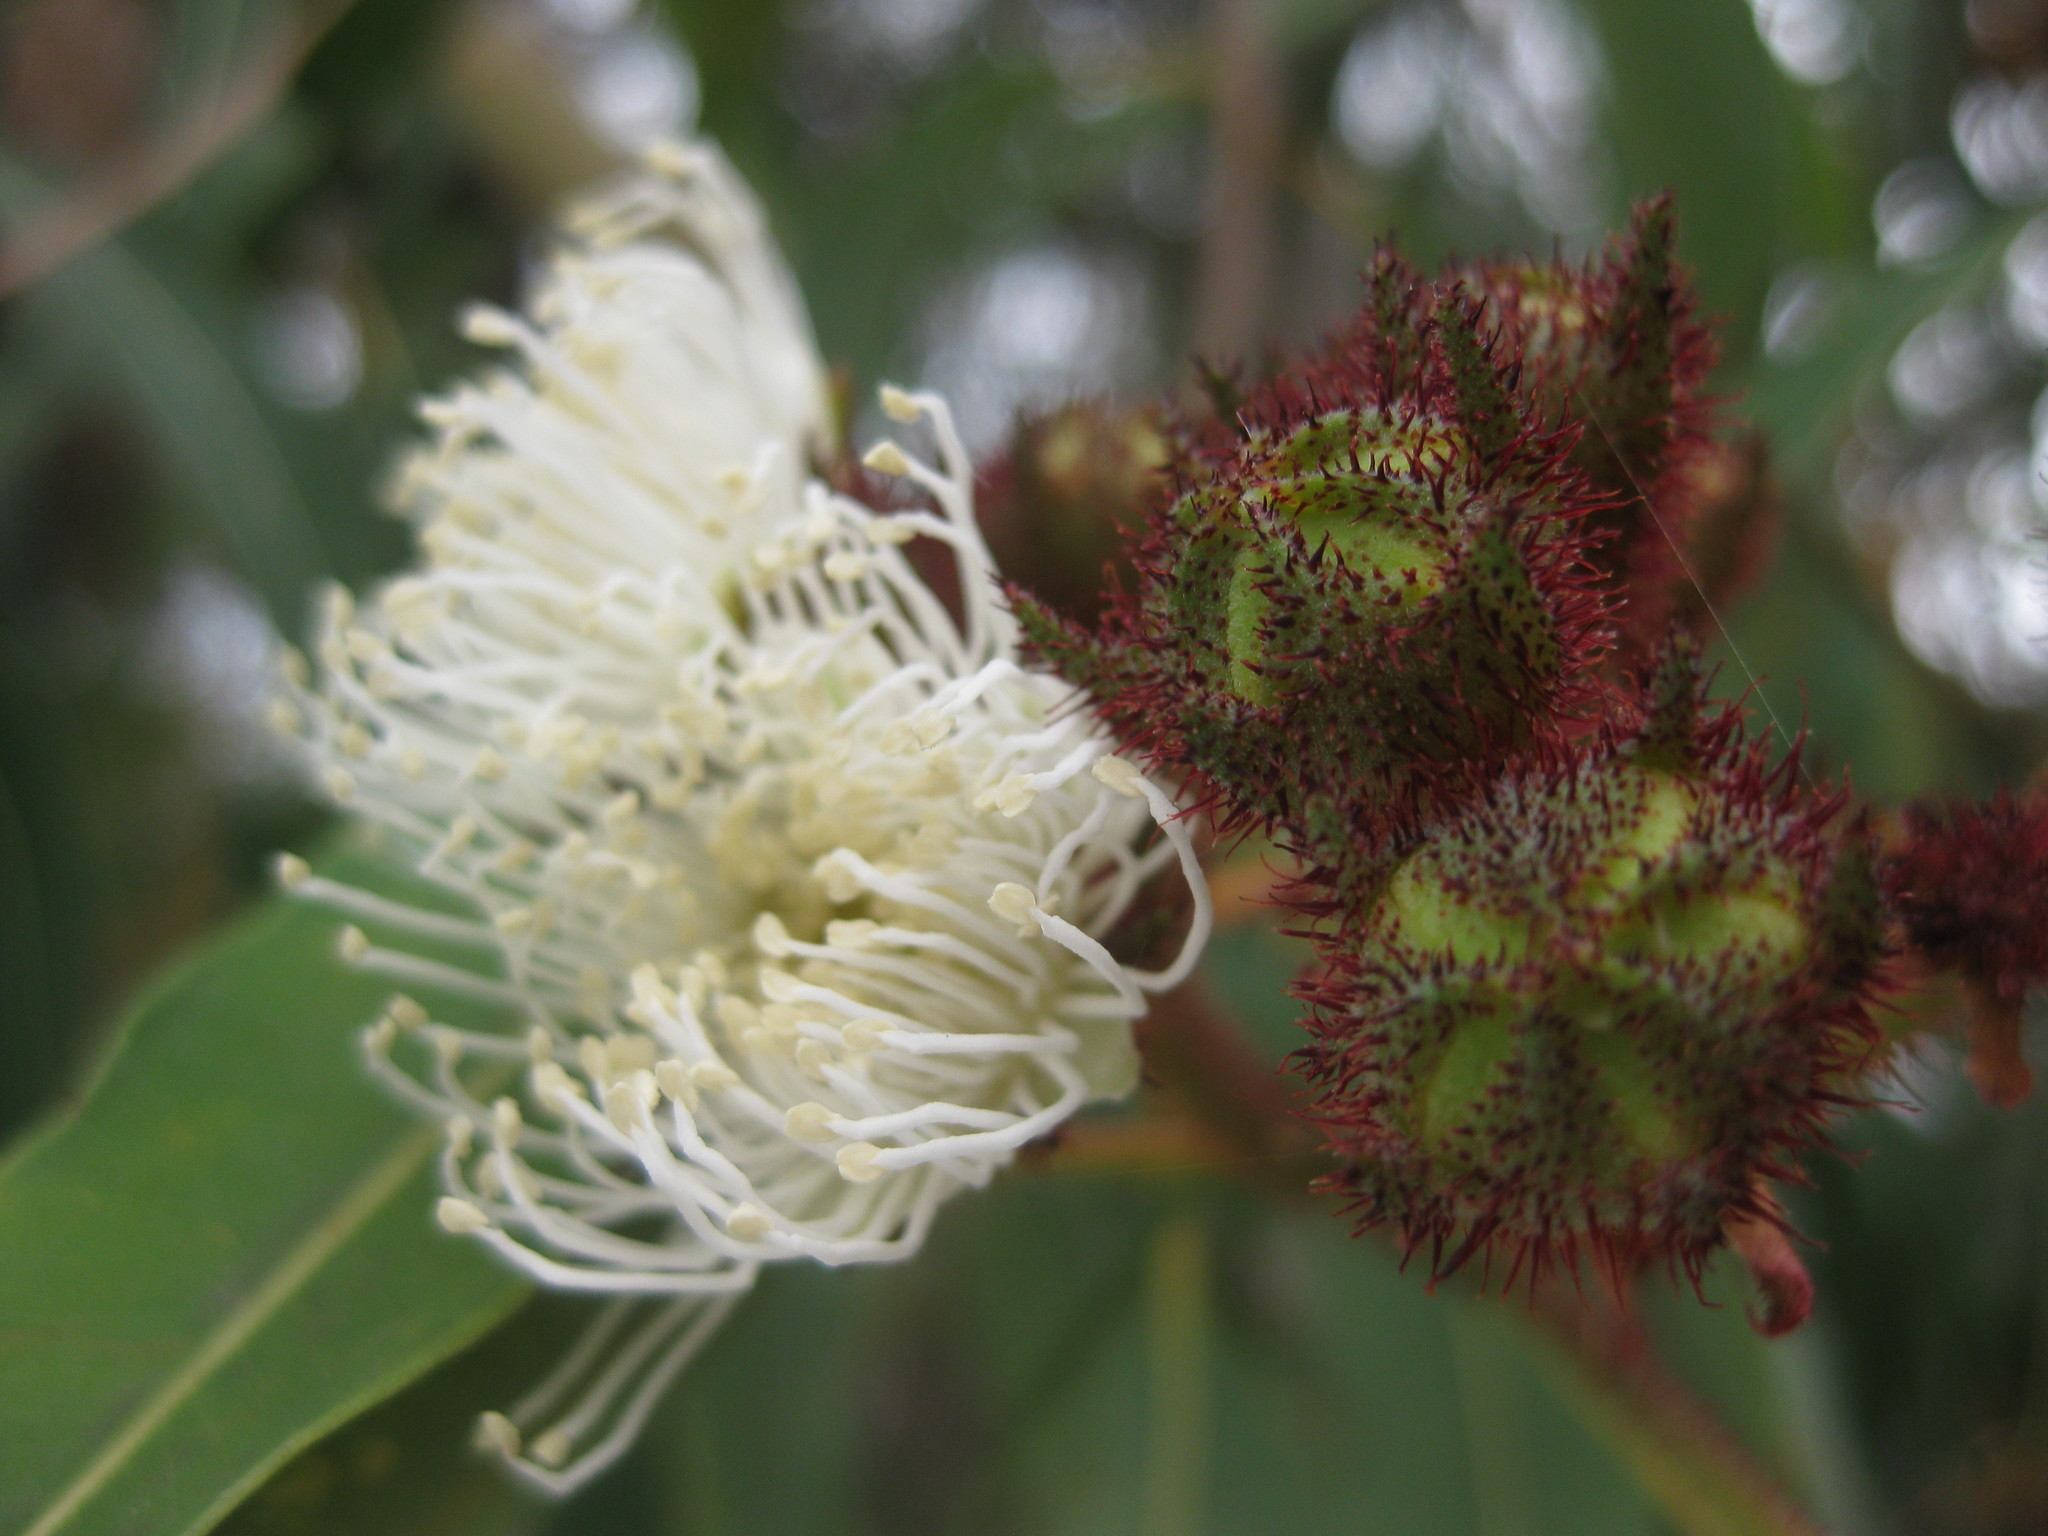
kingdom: Plantae
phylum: Tracheophyta
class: Magnoliopsida
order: Myrtales
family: Myrtaceae
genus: Angophora
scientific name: Angophora costata
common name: Gum myrtle
